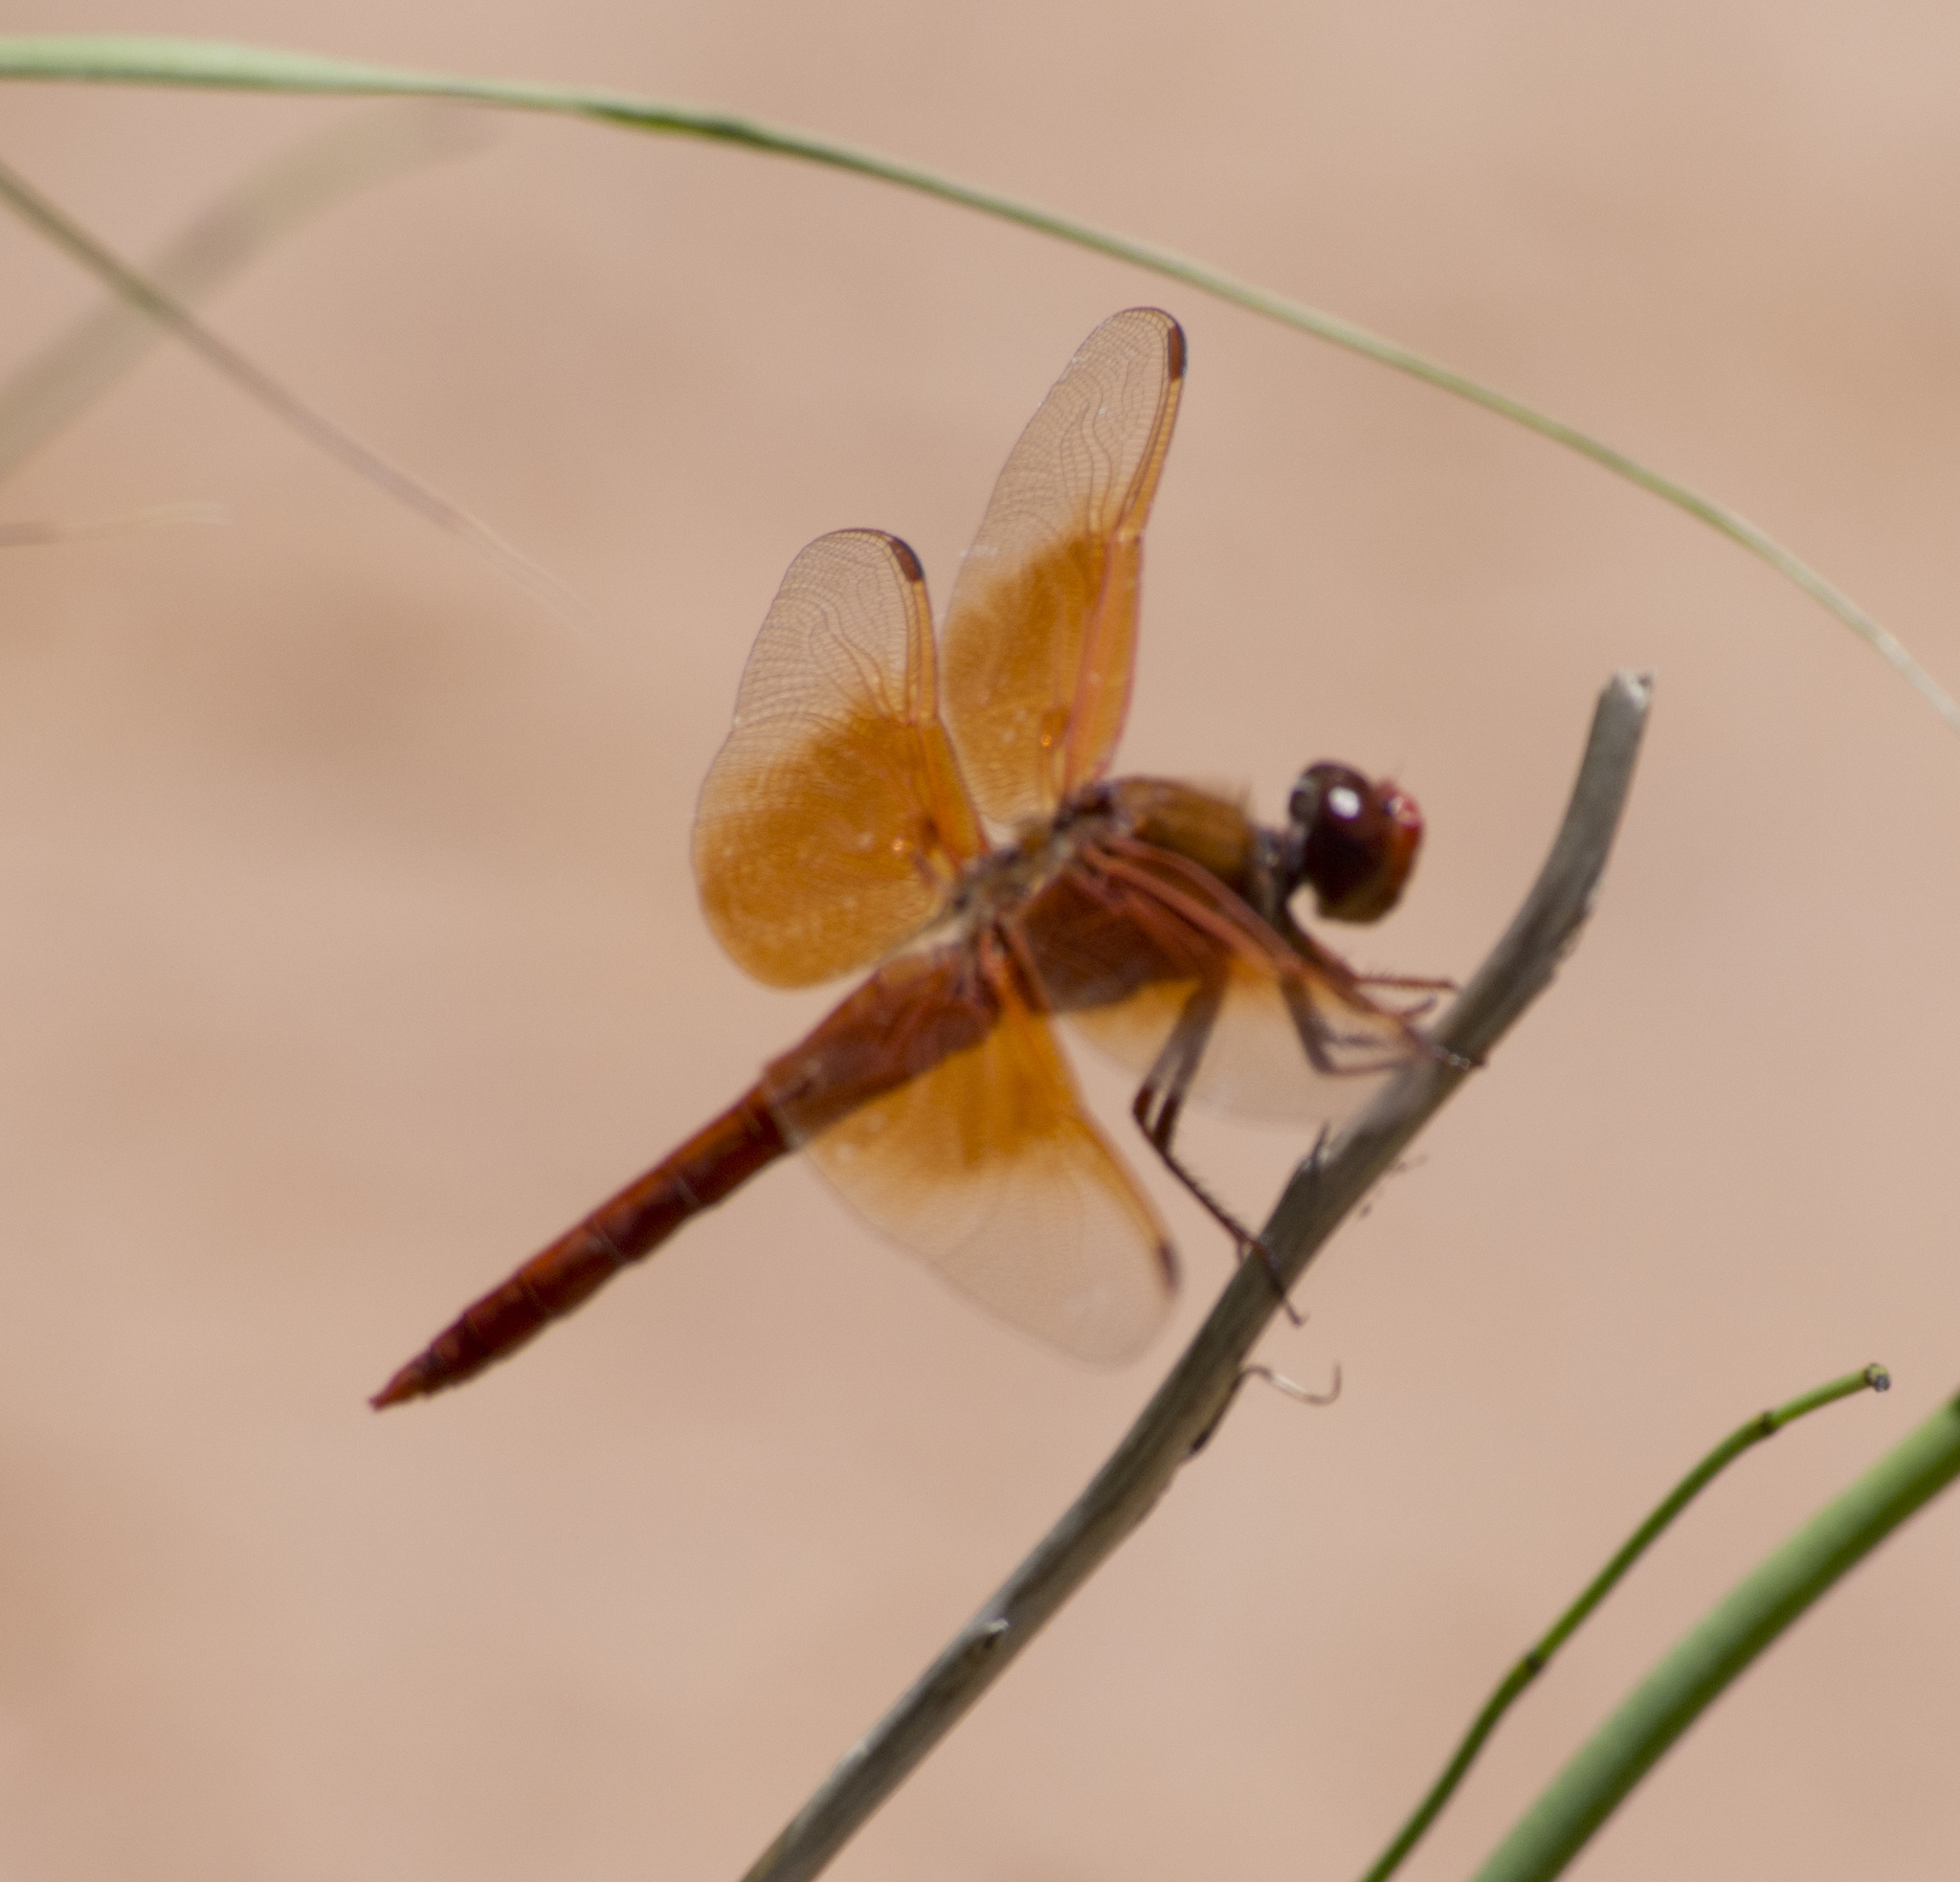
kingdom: Animalia
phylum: Arthropoda
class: Insecta
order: Odonata
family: Libellulidae
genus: Libellula
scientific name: Libellula saturata
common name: Flame skimmer
